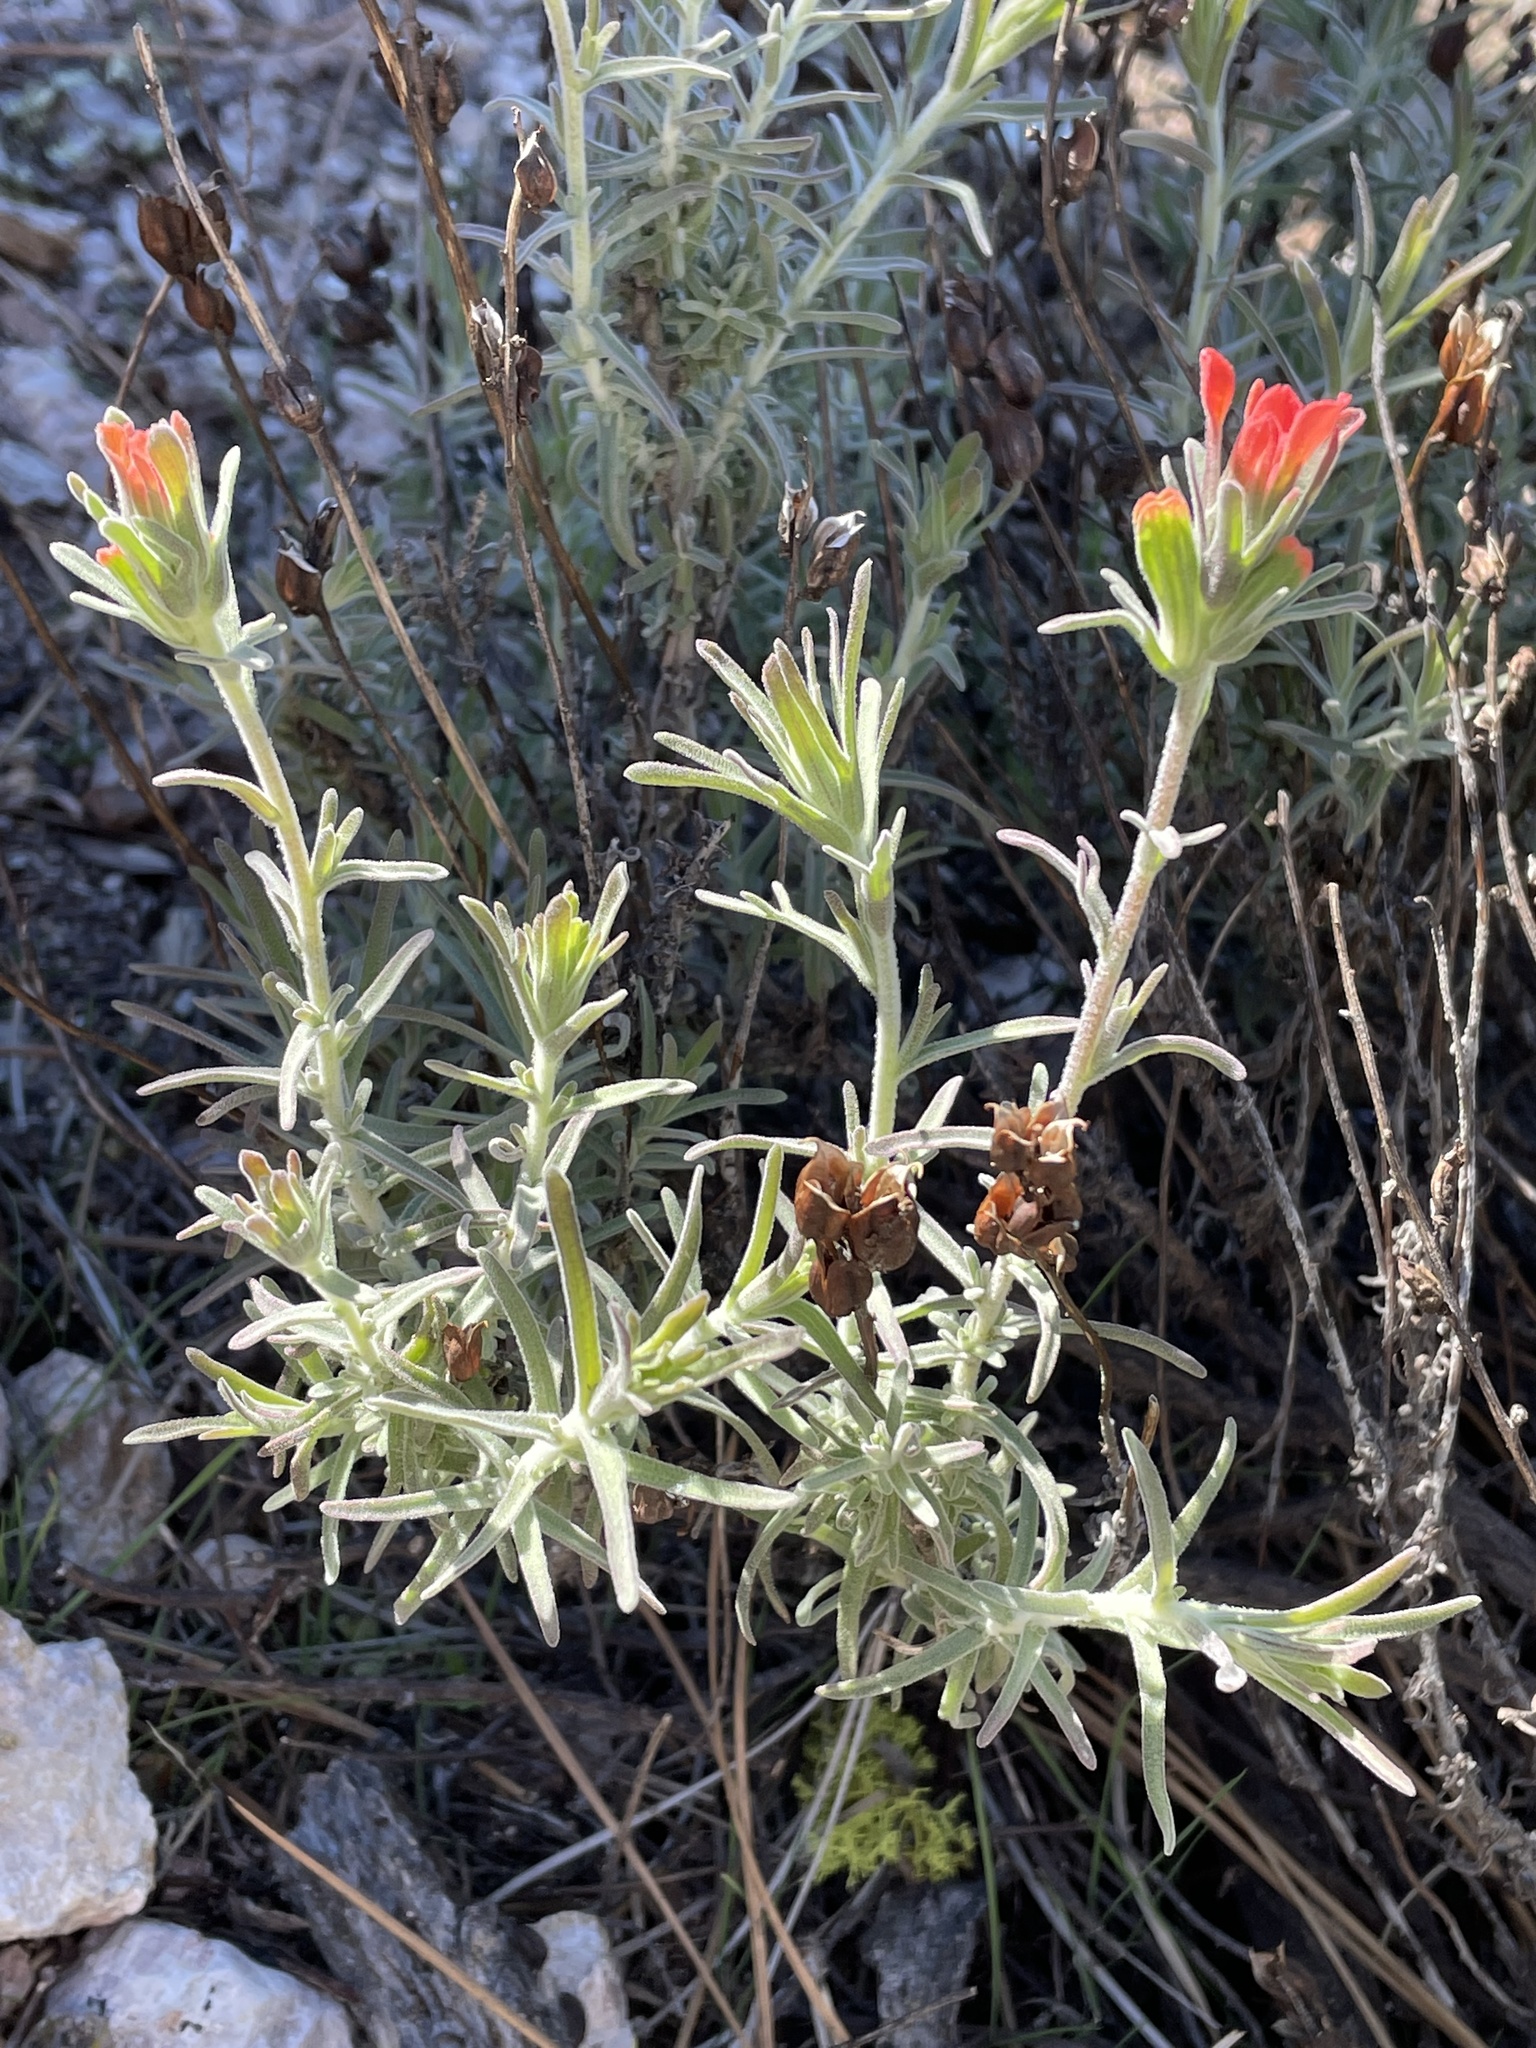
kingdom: Plantae
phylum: Tracheophyta
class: Magnoliopsida
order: Lamiales
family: Orobanchaceae
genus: Castilleja
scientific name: Castilleja foliolosa
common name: Woolly indian paintbrush
